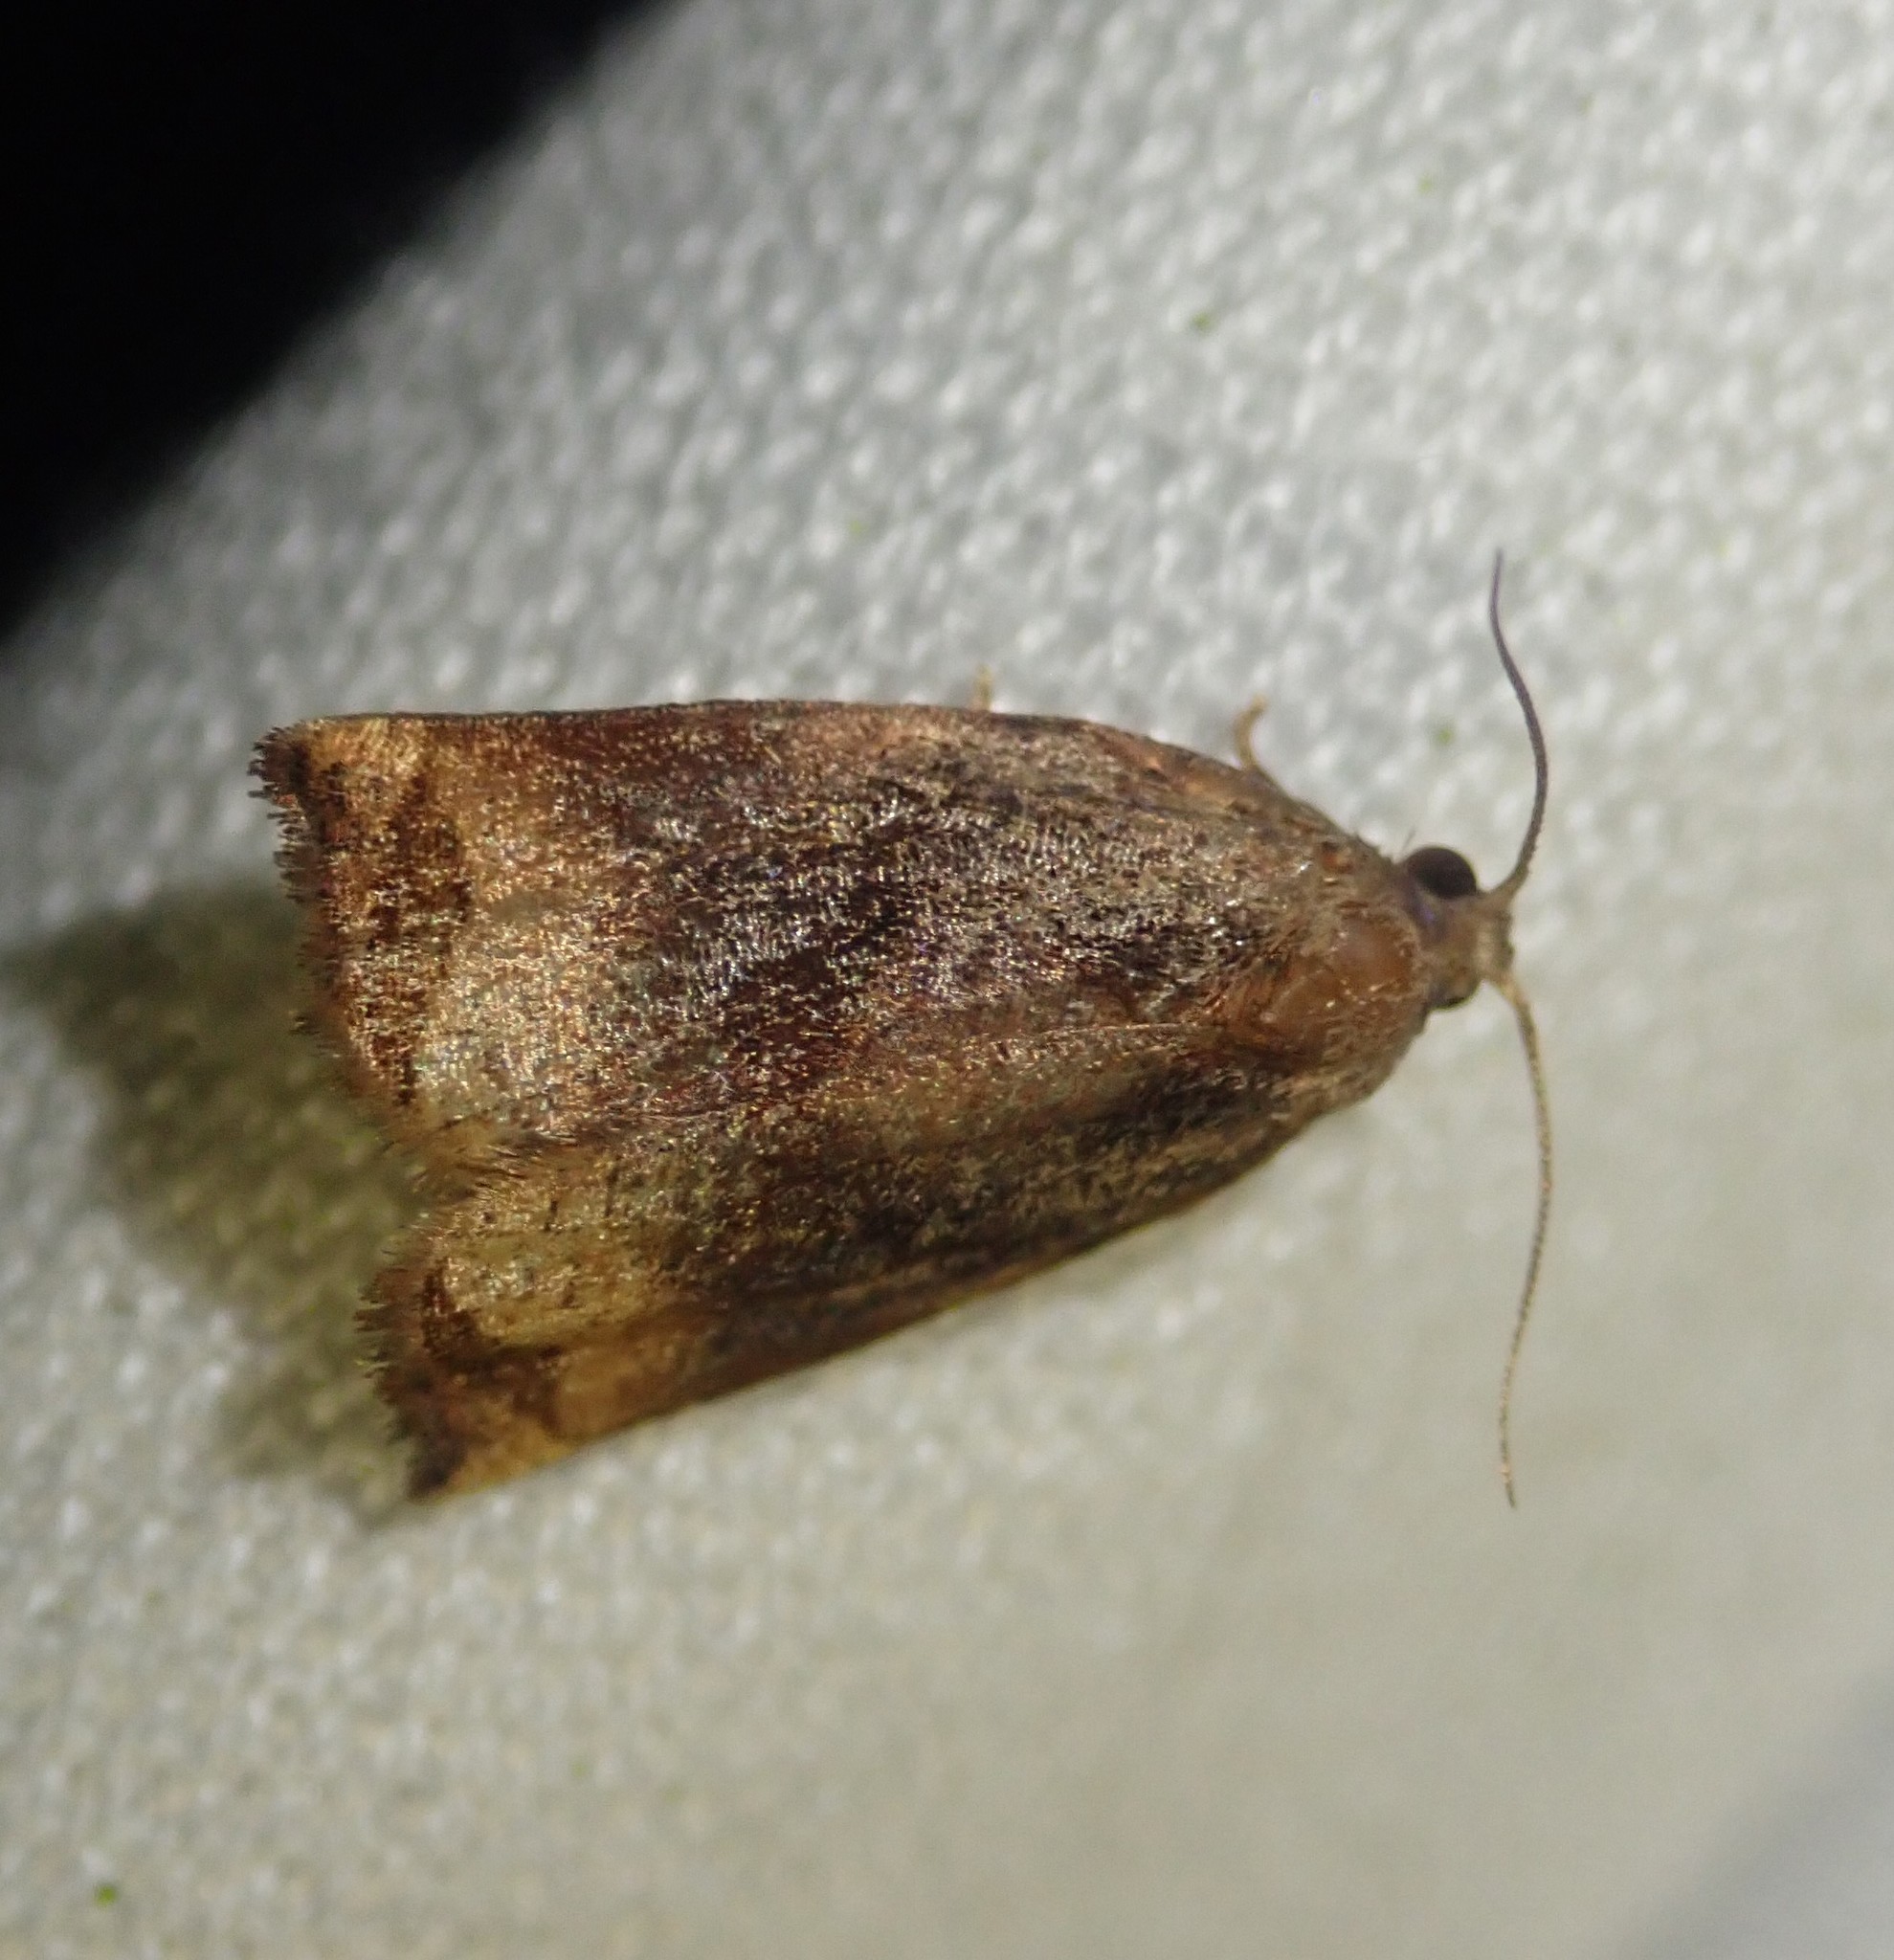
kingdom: Animalia
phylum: Arthropoda
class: Insecta
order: Lepidoptera
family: Tortricidae
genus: Archips
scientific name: Archips podana
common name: Large fruit-tree tortrix
